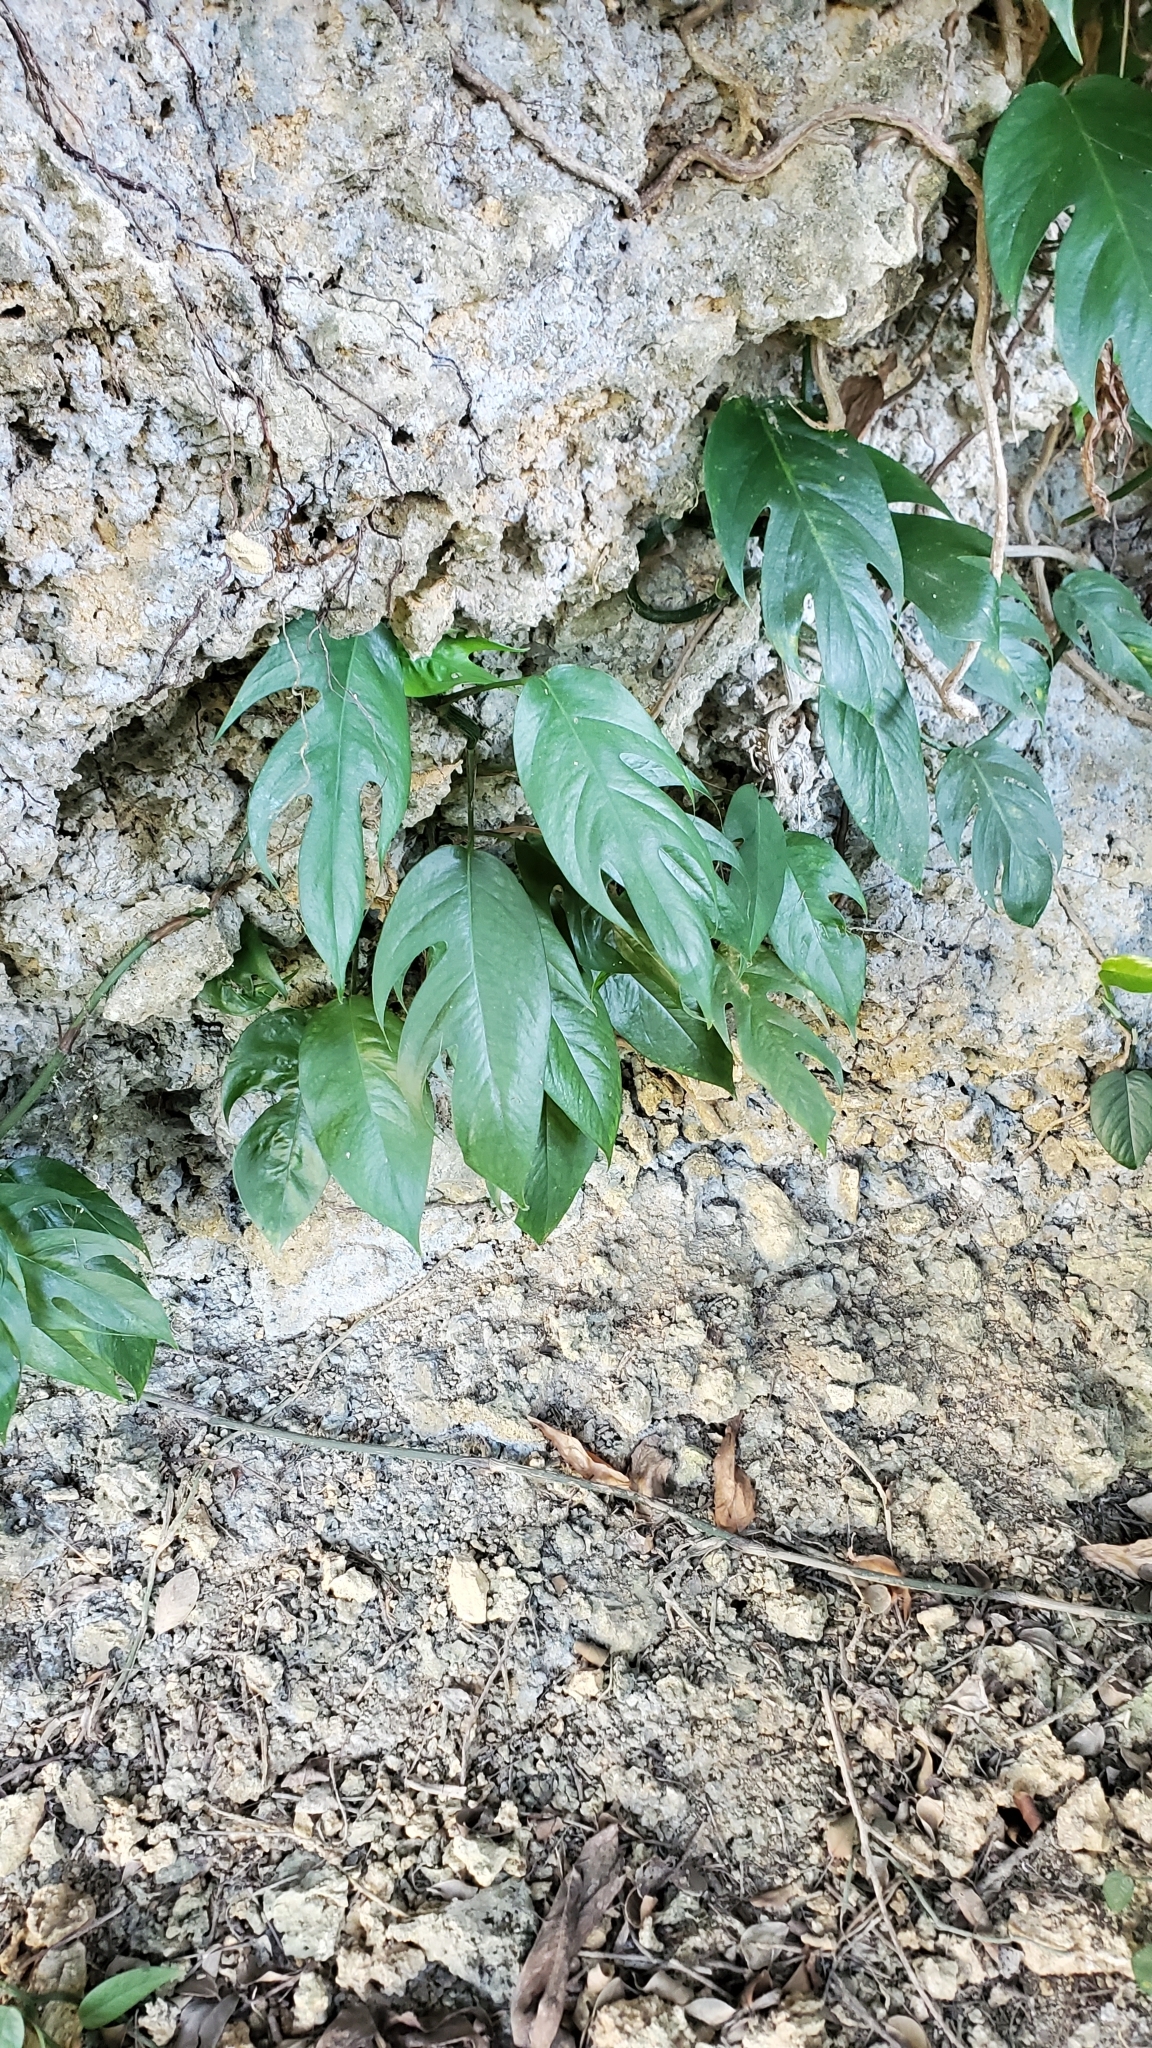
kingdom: Plantae
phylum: Tracheophyta
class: Liliopsida
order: Alismatales
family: Araceae
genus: Epipremnum
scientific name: Epipremnum pinnatum
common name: Centipede tongavine
